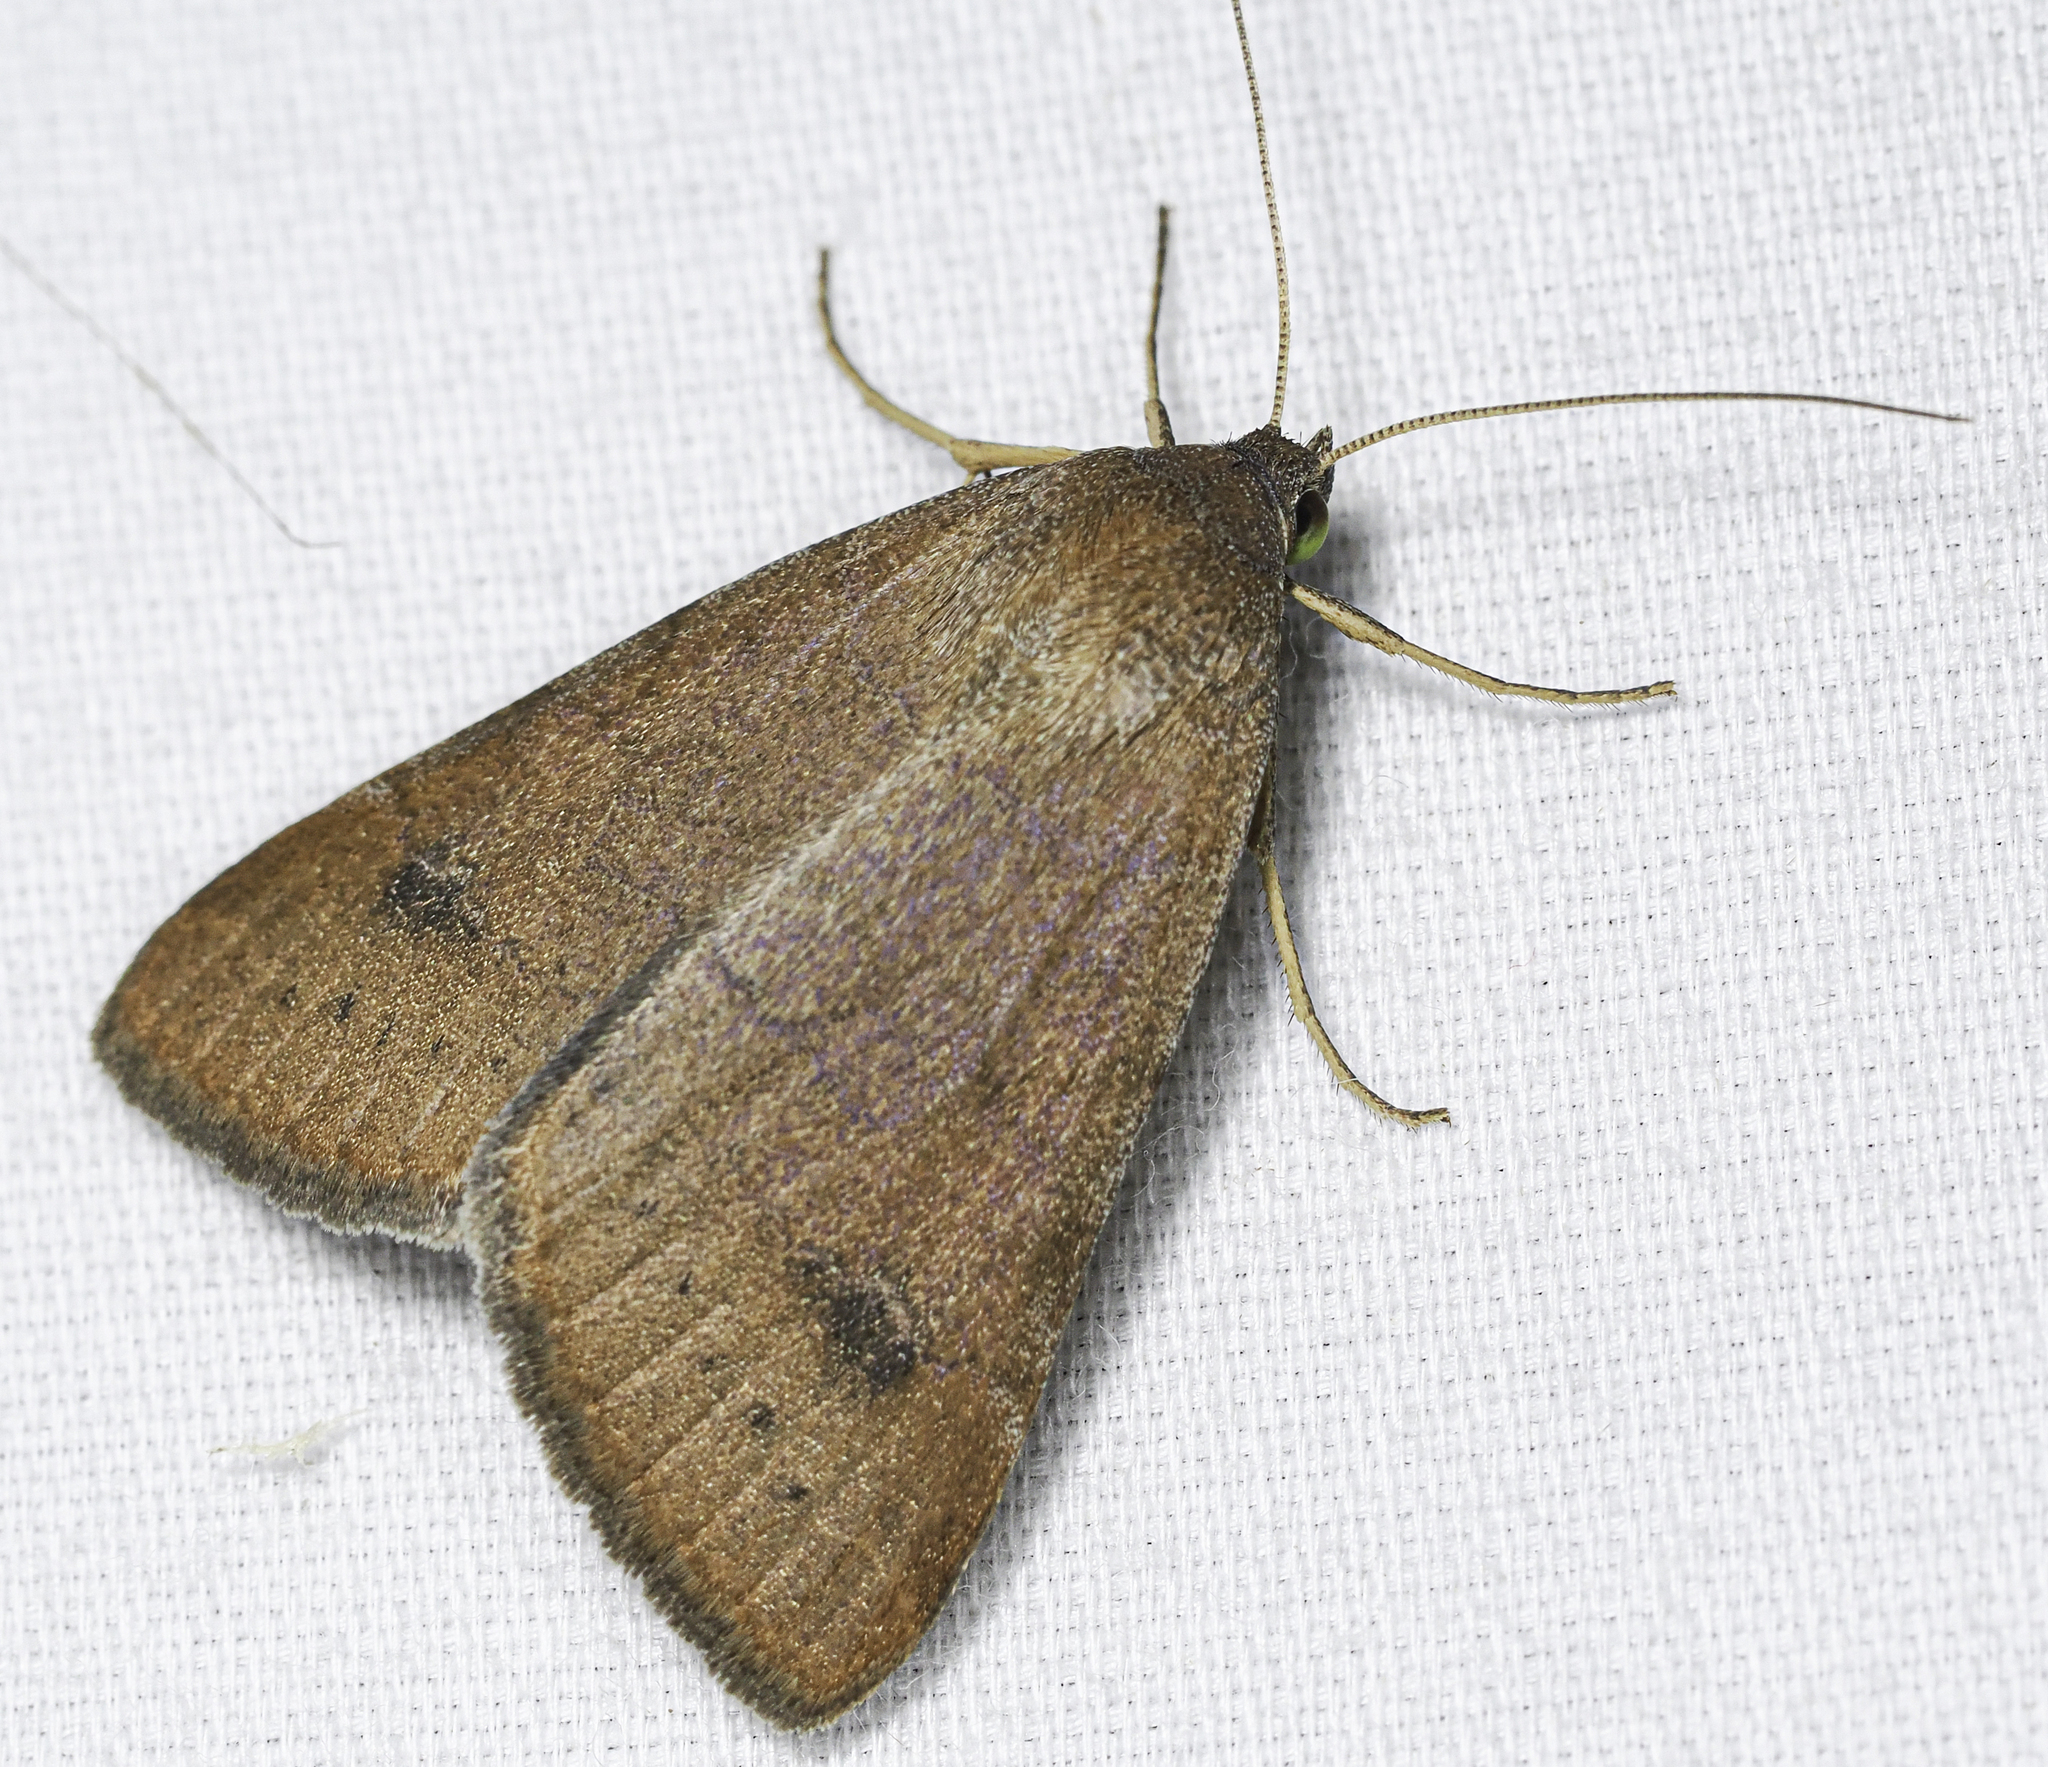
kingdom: Animalia
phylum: Arthropoda
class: Insecta
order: Lepidoptera
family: Erebidae
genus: Caenurgia
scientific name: Caenurgia chloropha
